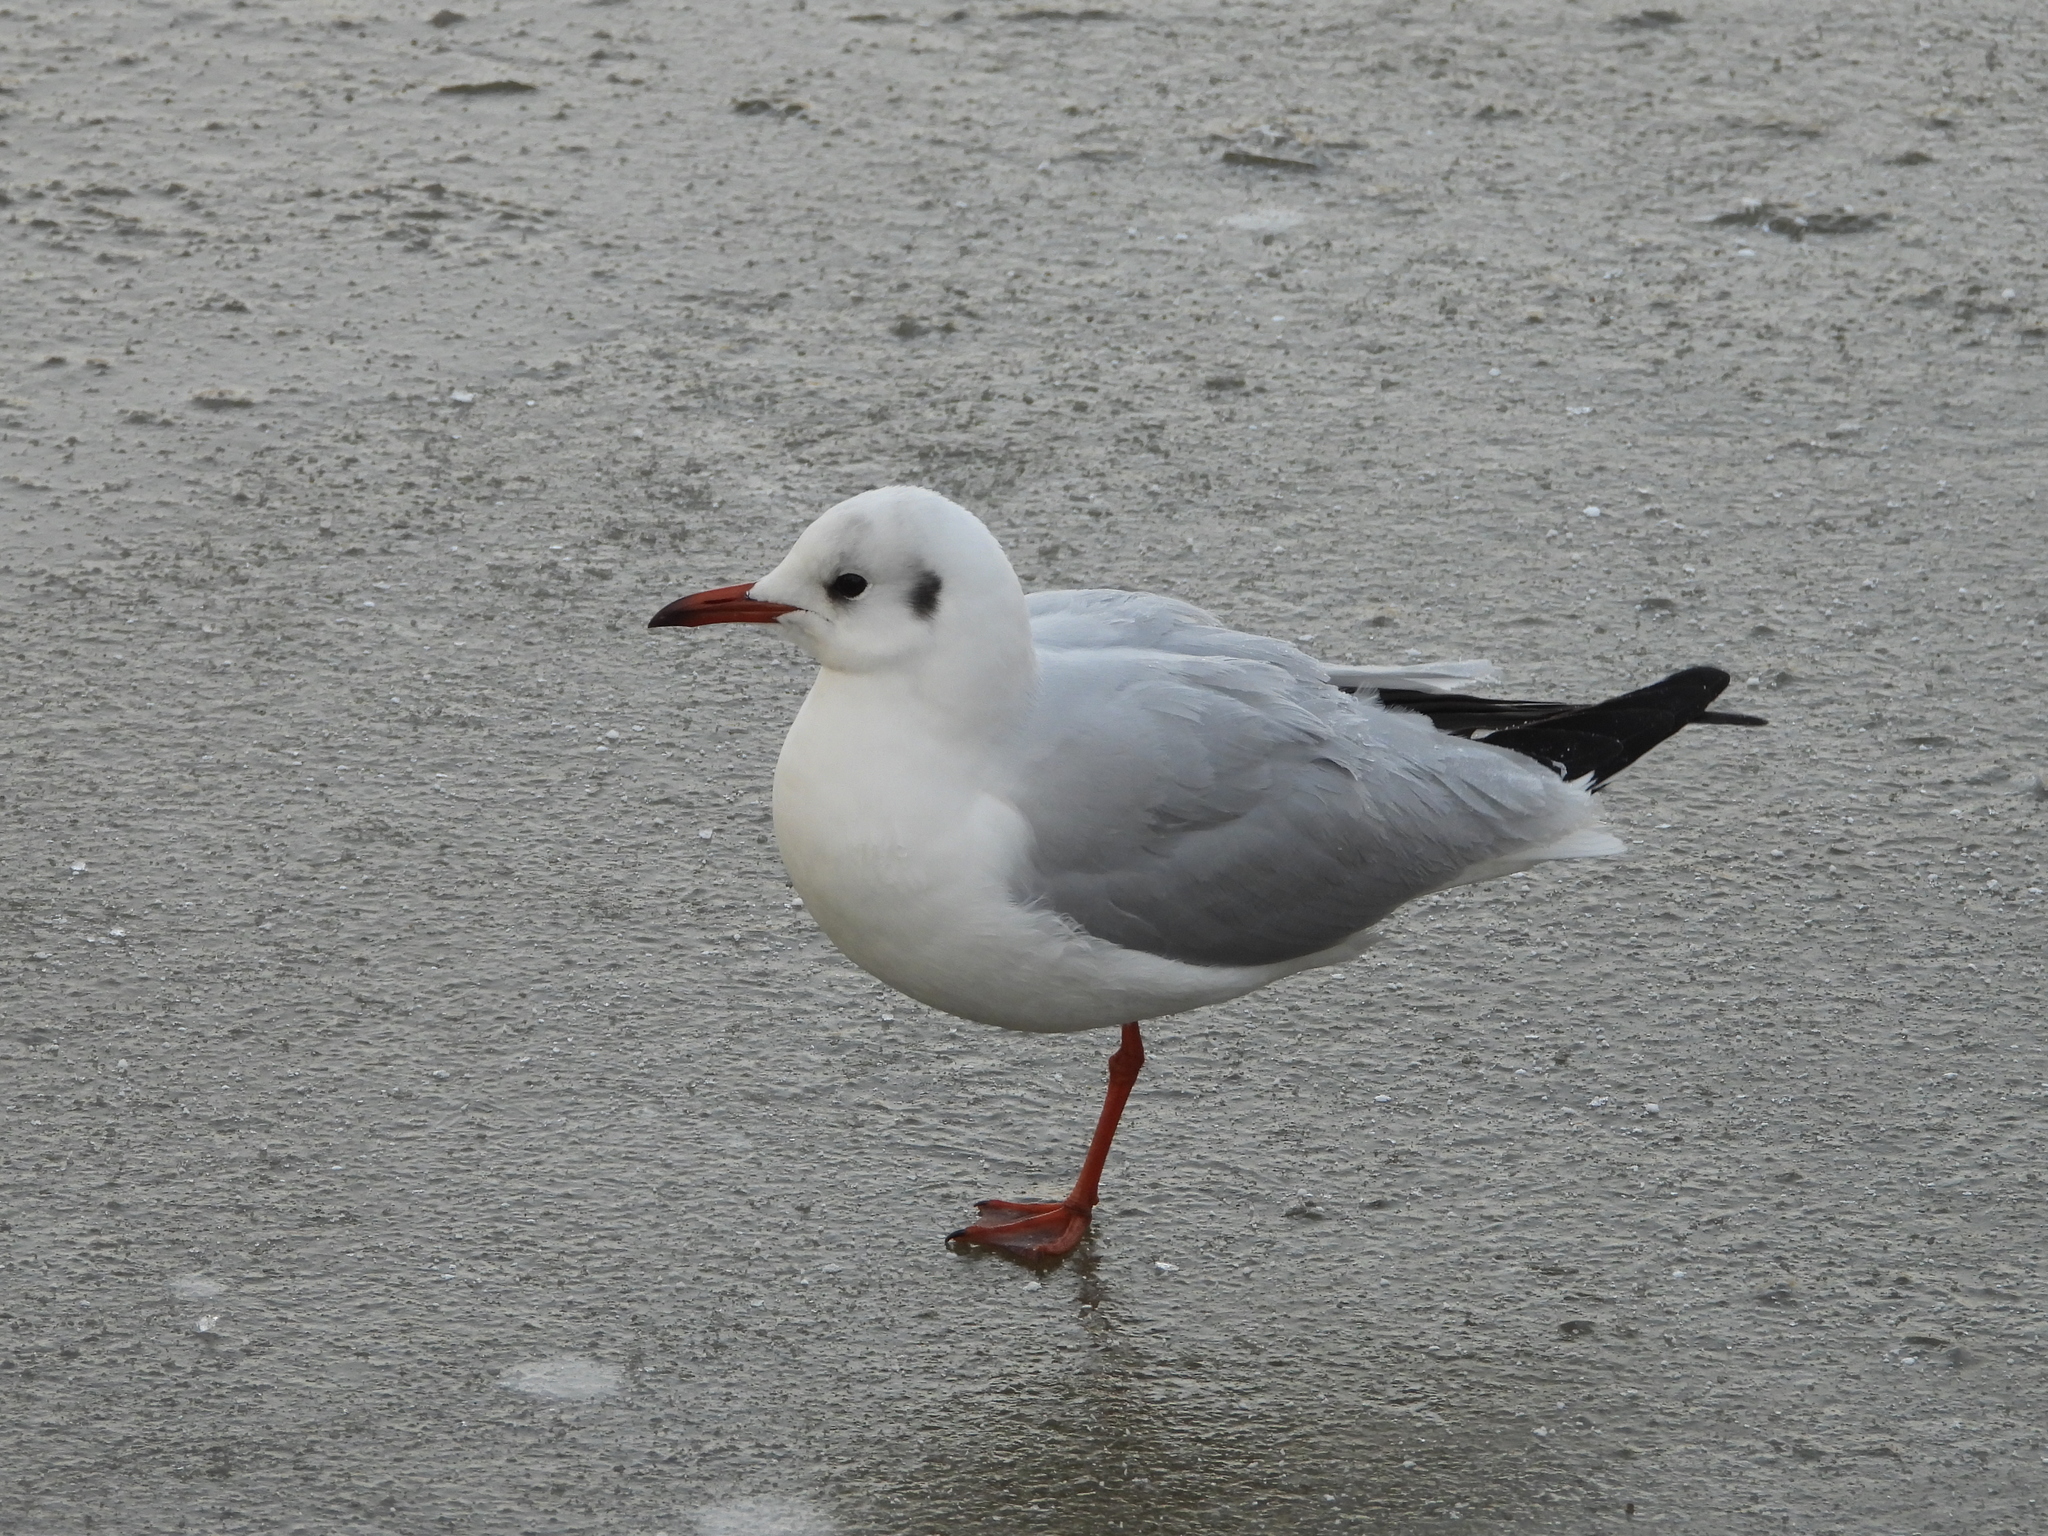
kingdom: Animalia
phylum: Chordata
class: Aves
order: Charadriiformes
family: Laridae
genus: Chroicocephalus
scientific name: Chroicocephalus ridibundus
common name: Black-headed gull
